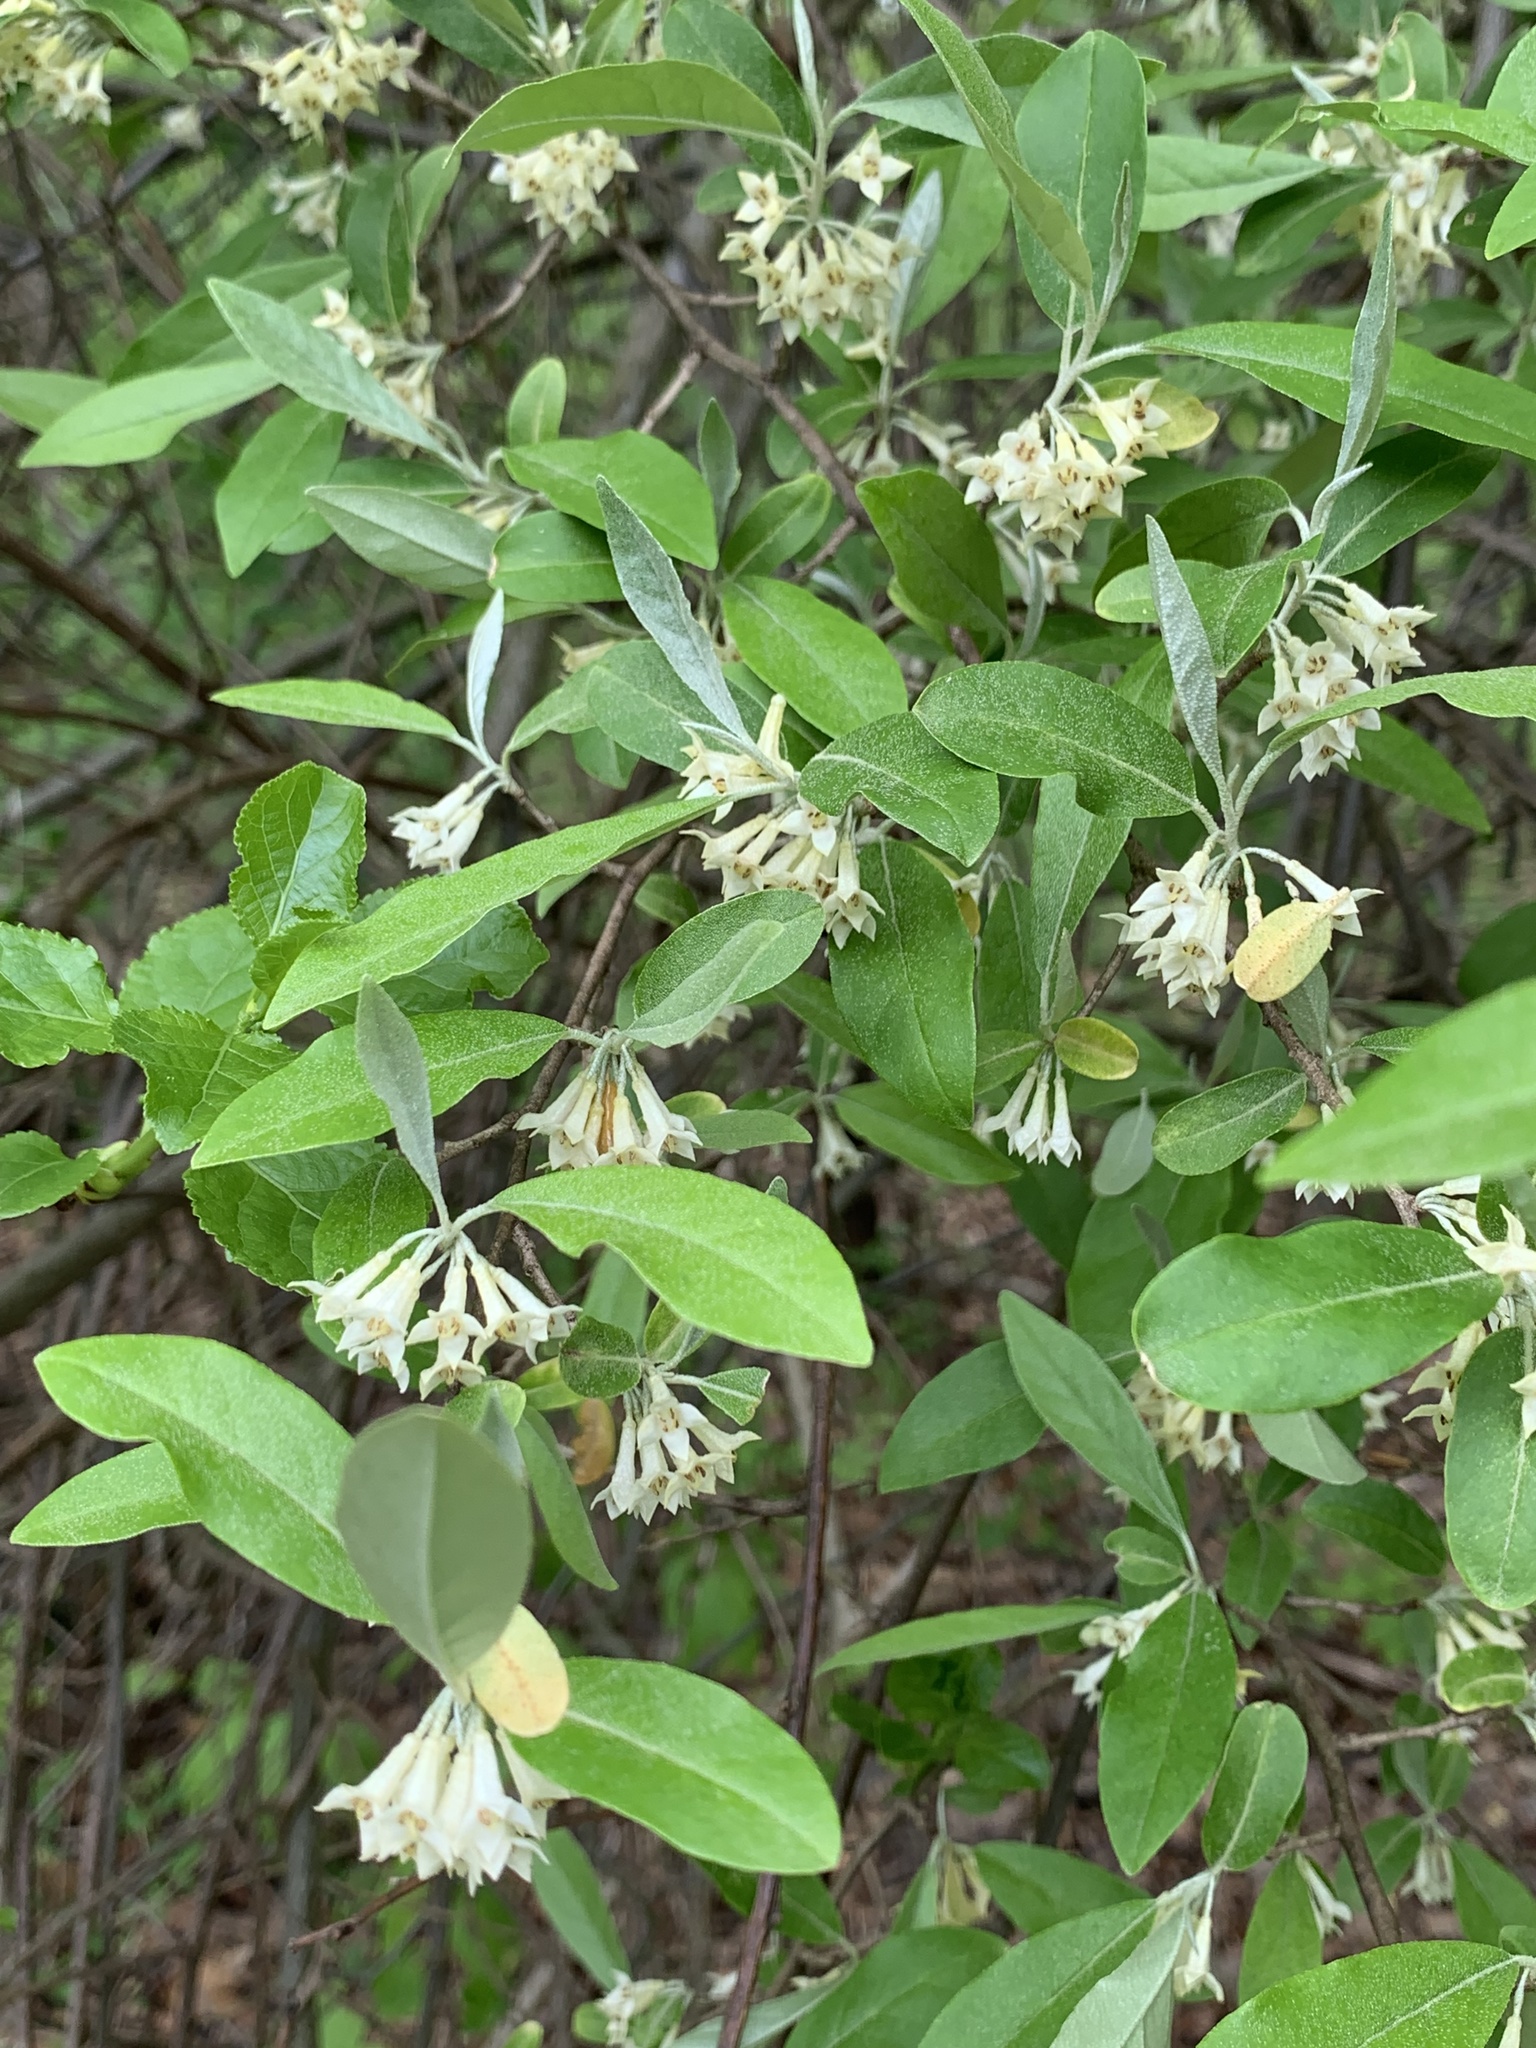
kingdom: Plantae
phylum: Tracheophyta
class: Magnoliopsida
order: Rosales
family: Elaeagnaceae
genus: Elaeagnus
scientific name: Elaeagnus umbellata
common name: Autumn olive
